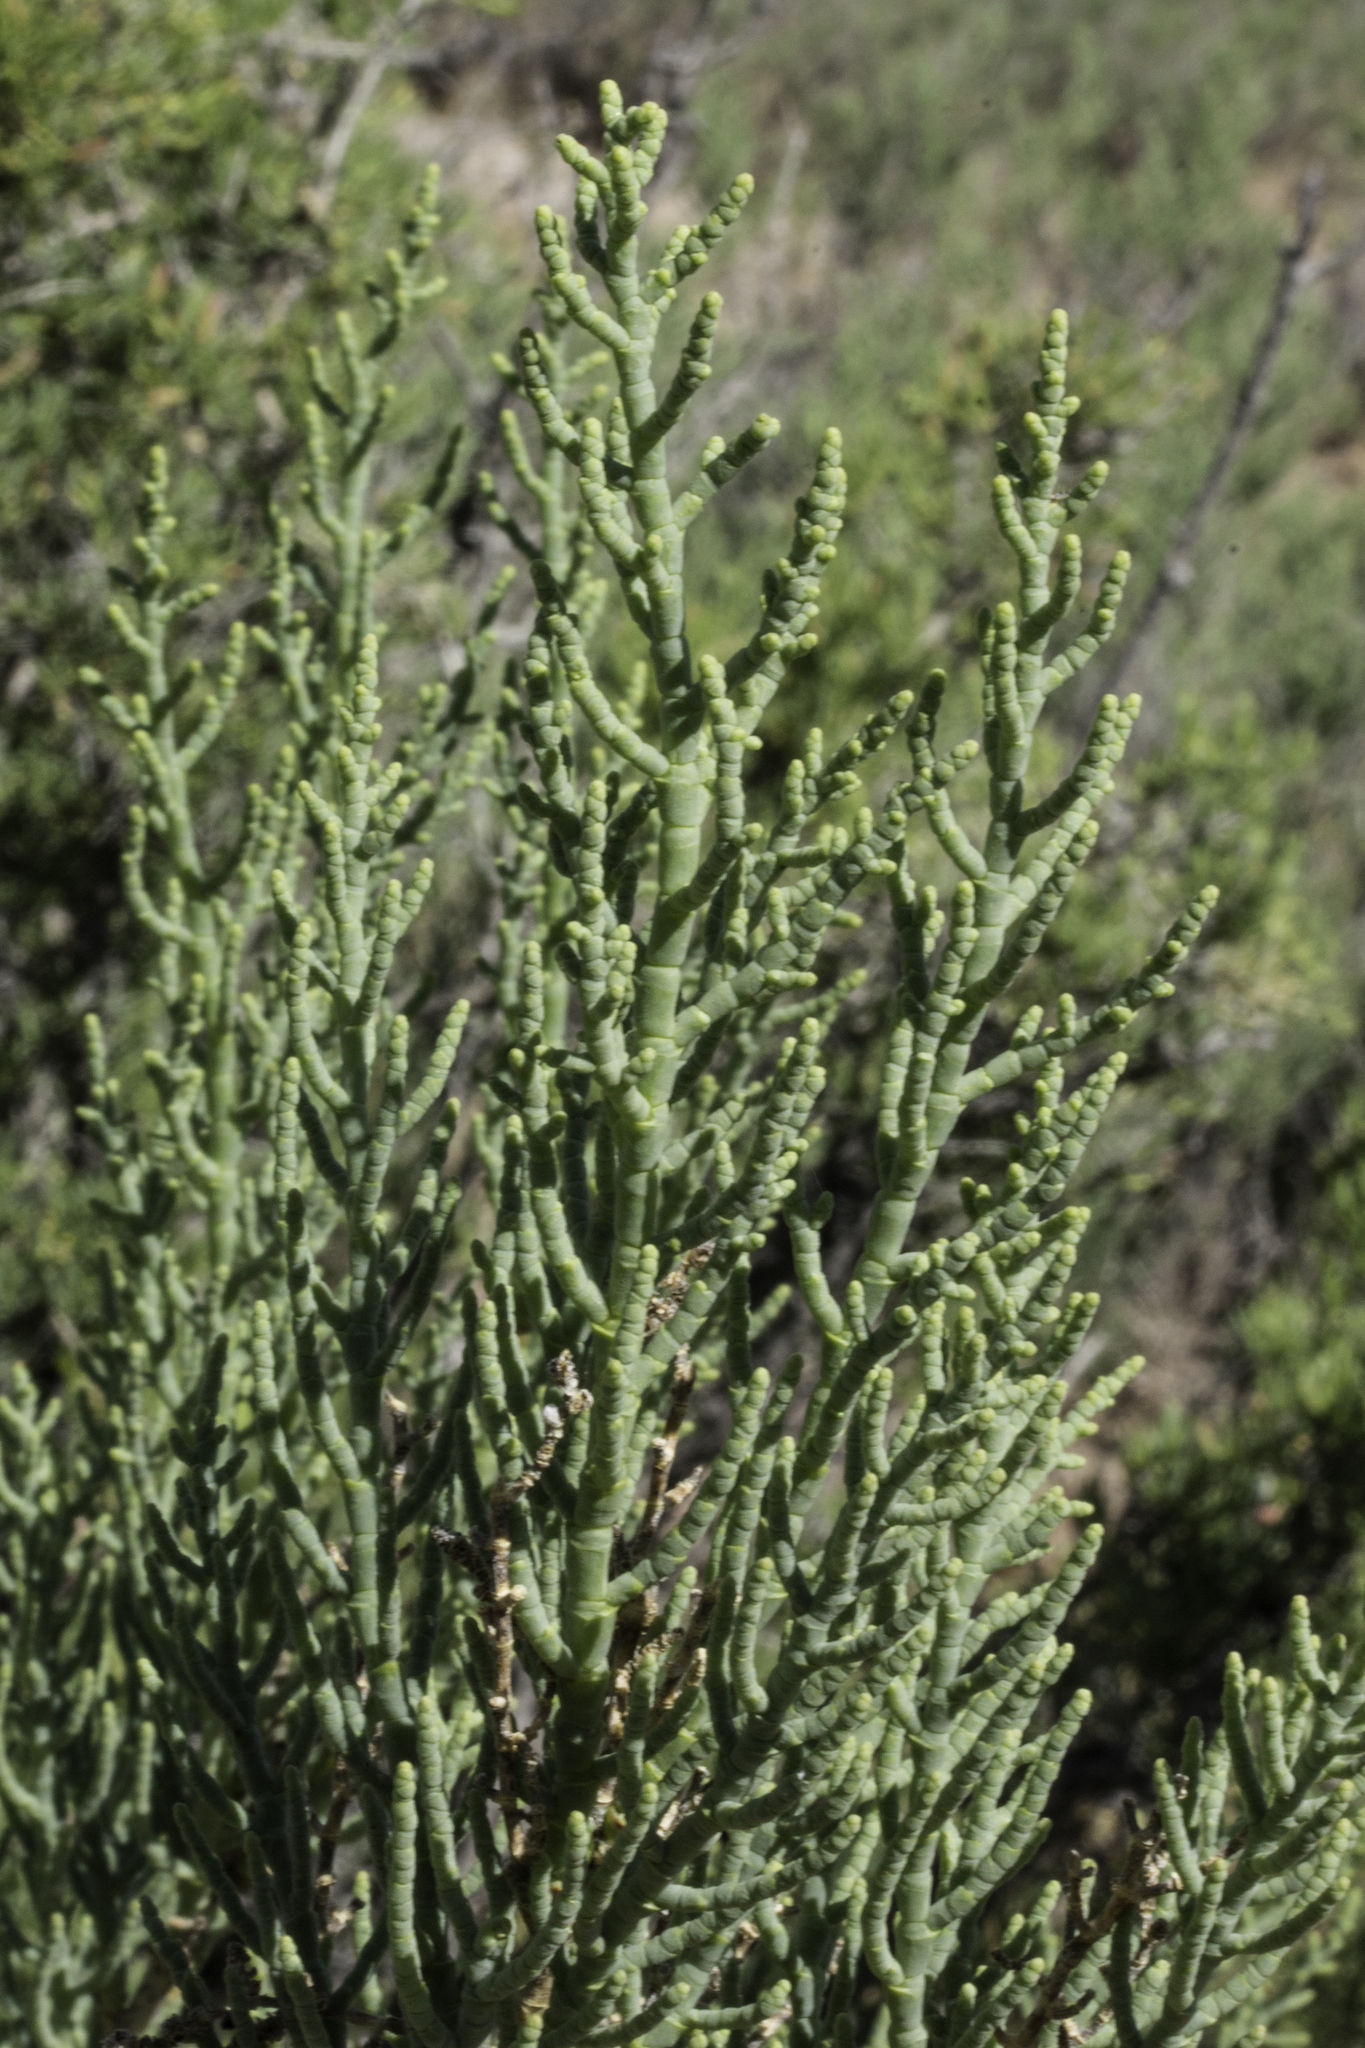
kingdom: Plantae
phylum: Tracheophyta
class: Magnoliopsida
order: Caryophyllales
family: Amaranthaceae
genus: Allenrolfea
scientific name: Allenrolfea occidentalis
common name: Iodine-bush
